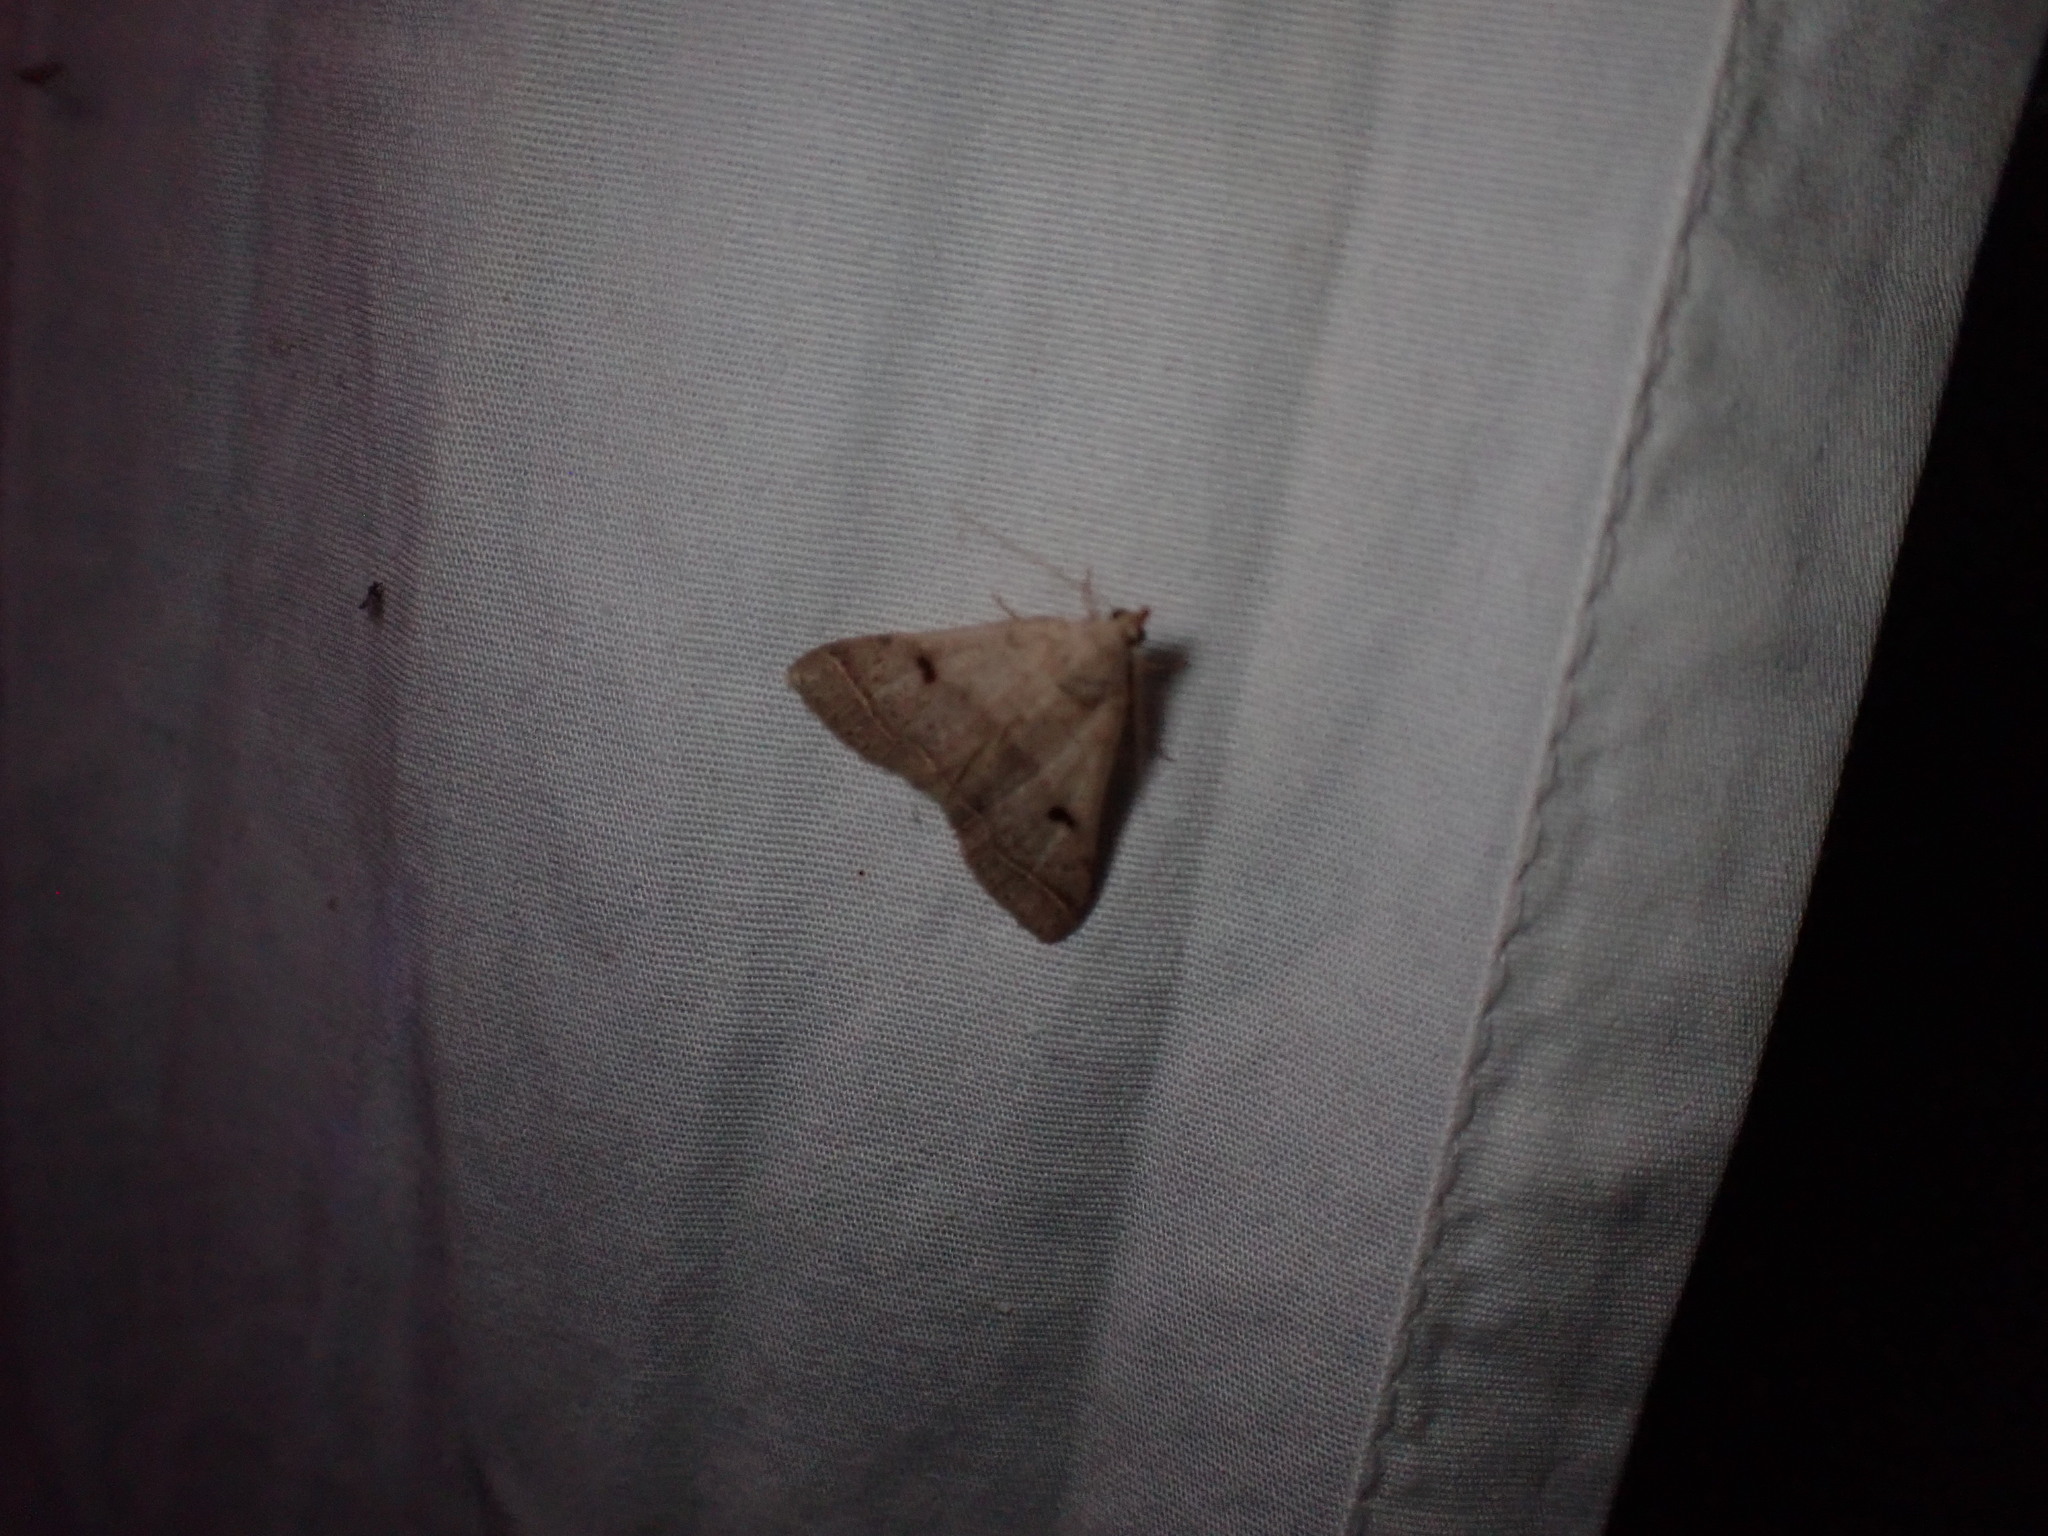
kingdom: Animalia
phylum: Arthropoda
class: Insecta
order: Lepidoptera
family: Erebidae
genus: Bleptina
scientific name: Bleptina caradrinalis
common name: Bent-winged owlet
